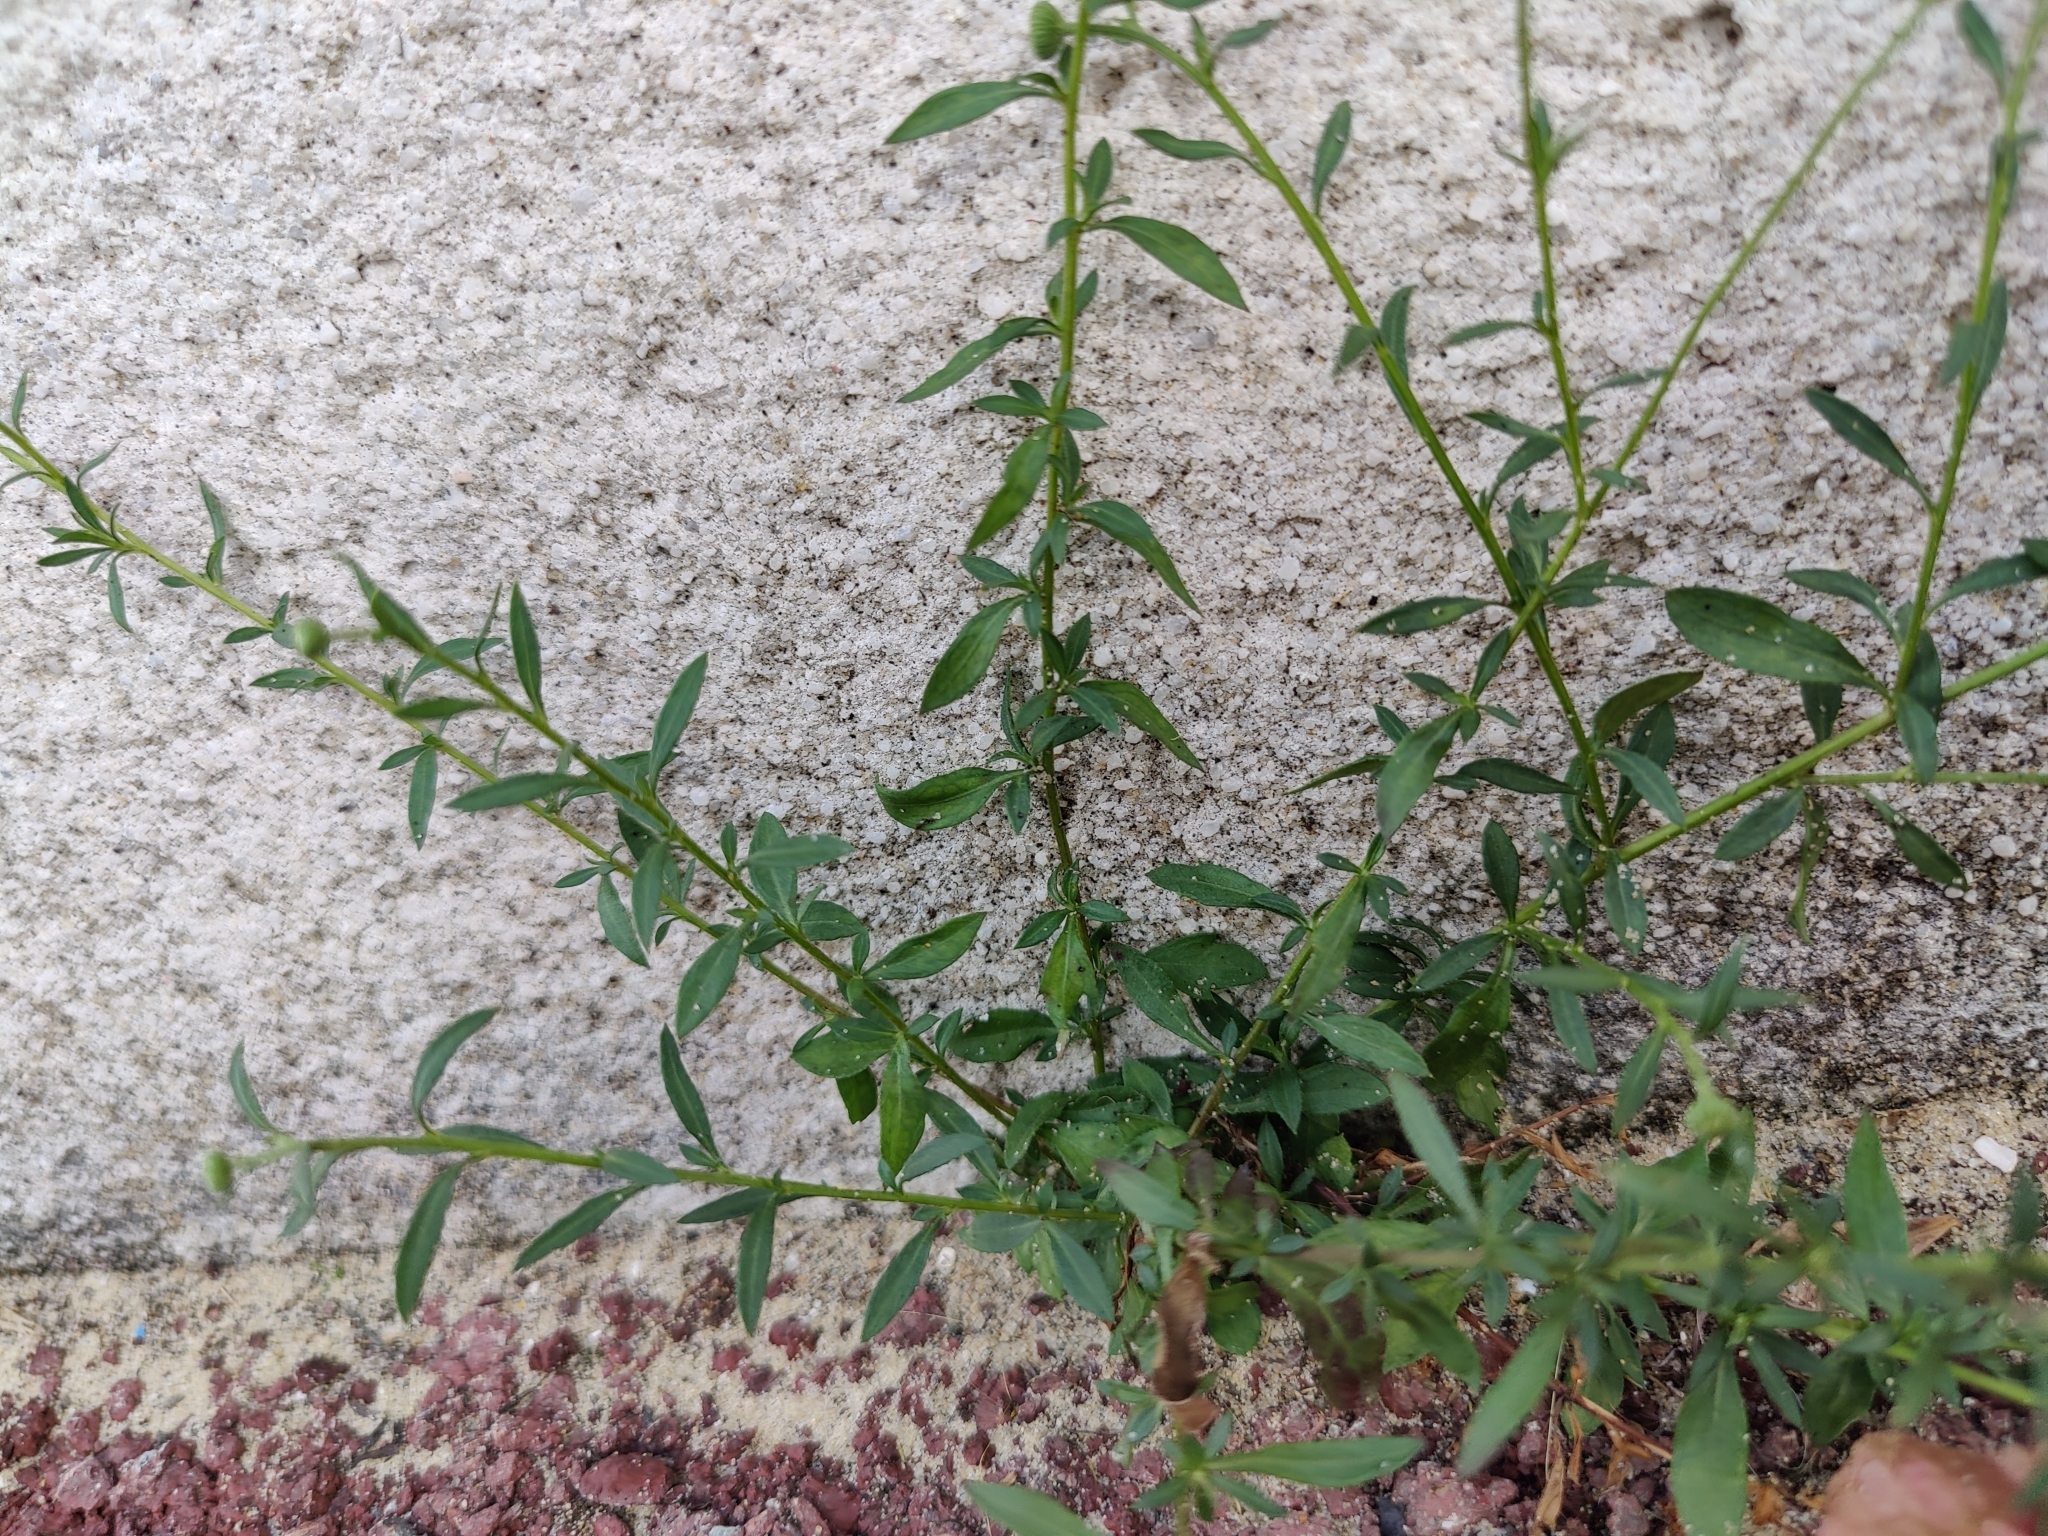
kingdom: Plantae
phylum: Tracheophyta
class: Magnoliopsida
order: Asterales
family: Asteraceae
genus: Erigeron
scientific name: Erigeron karvinskianus
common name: Mexican fleabane
